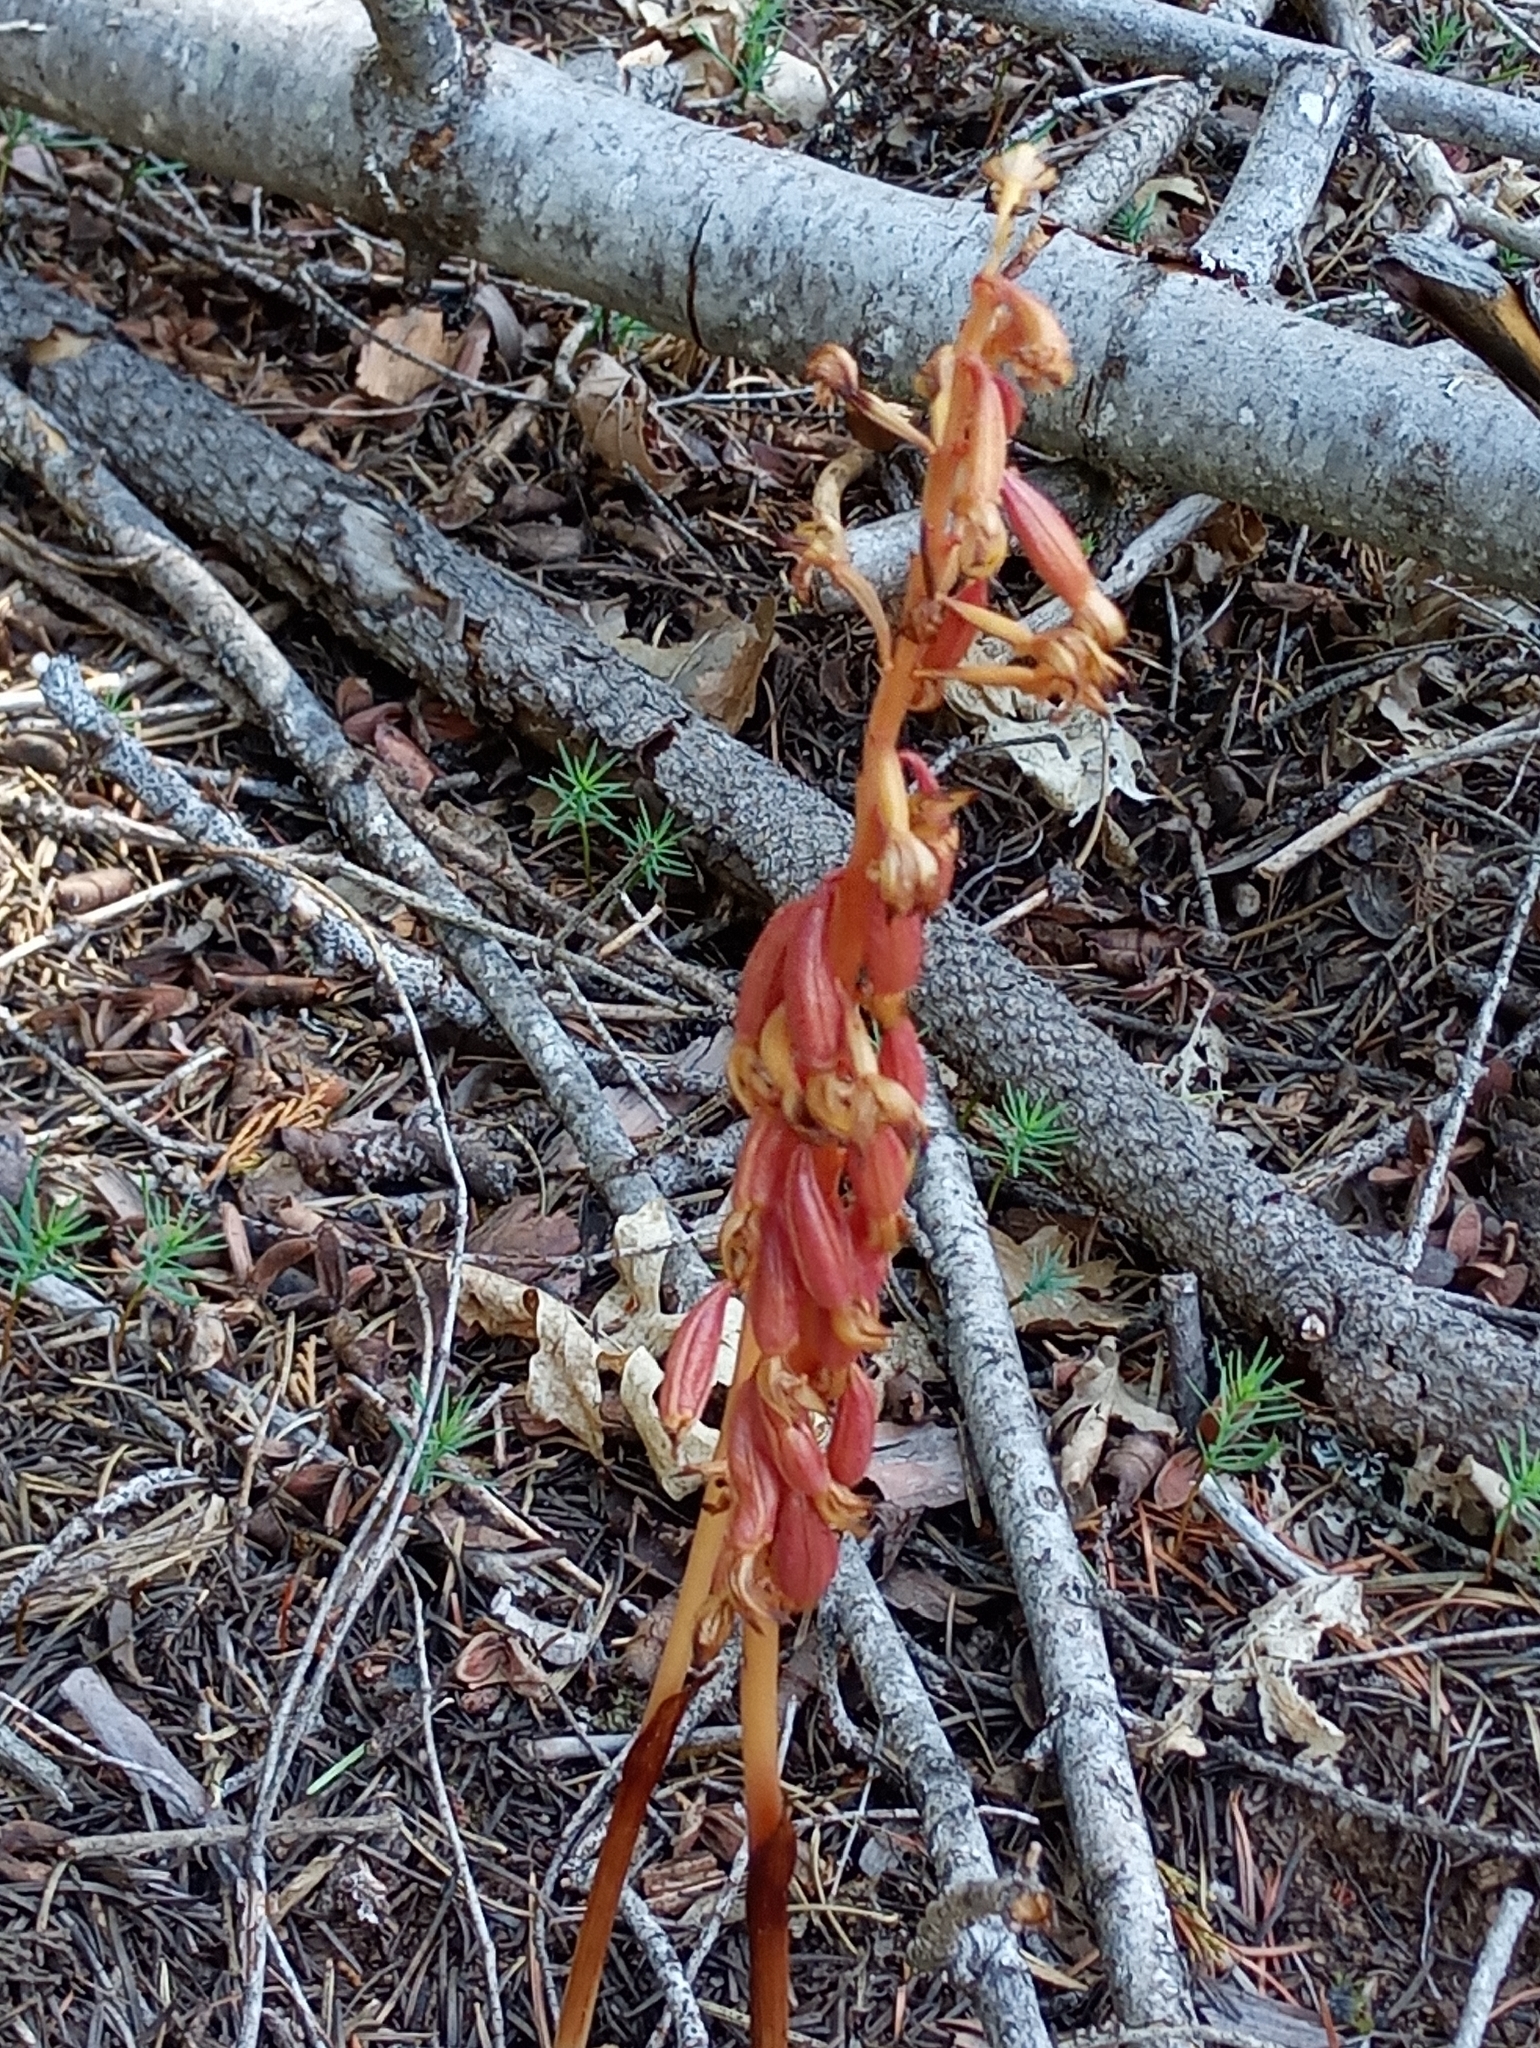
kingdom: Plantae
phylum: Tracheophyta
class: Liliopsida
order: Asparagales
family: Orchidaceae
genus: Corallorhiza
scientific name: Corallorhiza maculata
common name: Spotted coralroot
